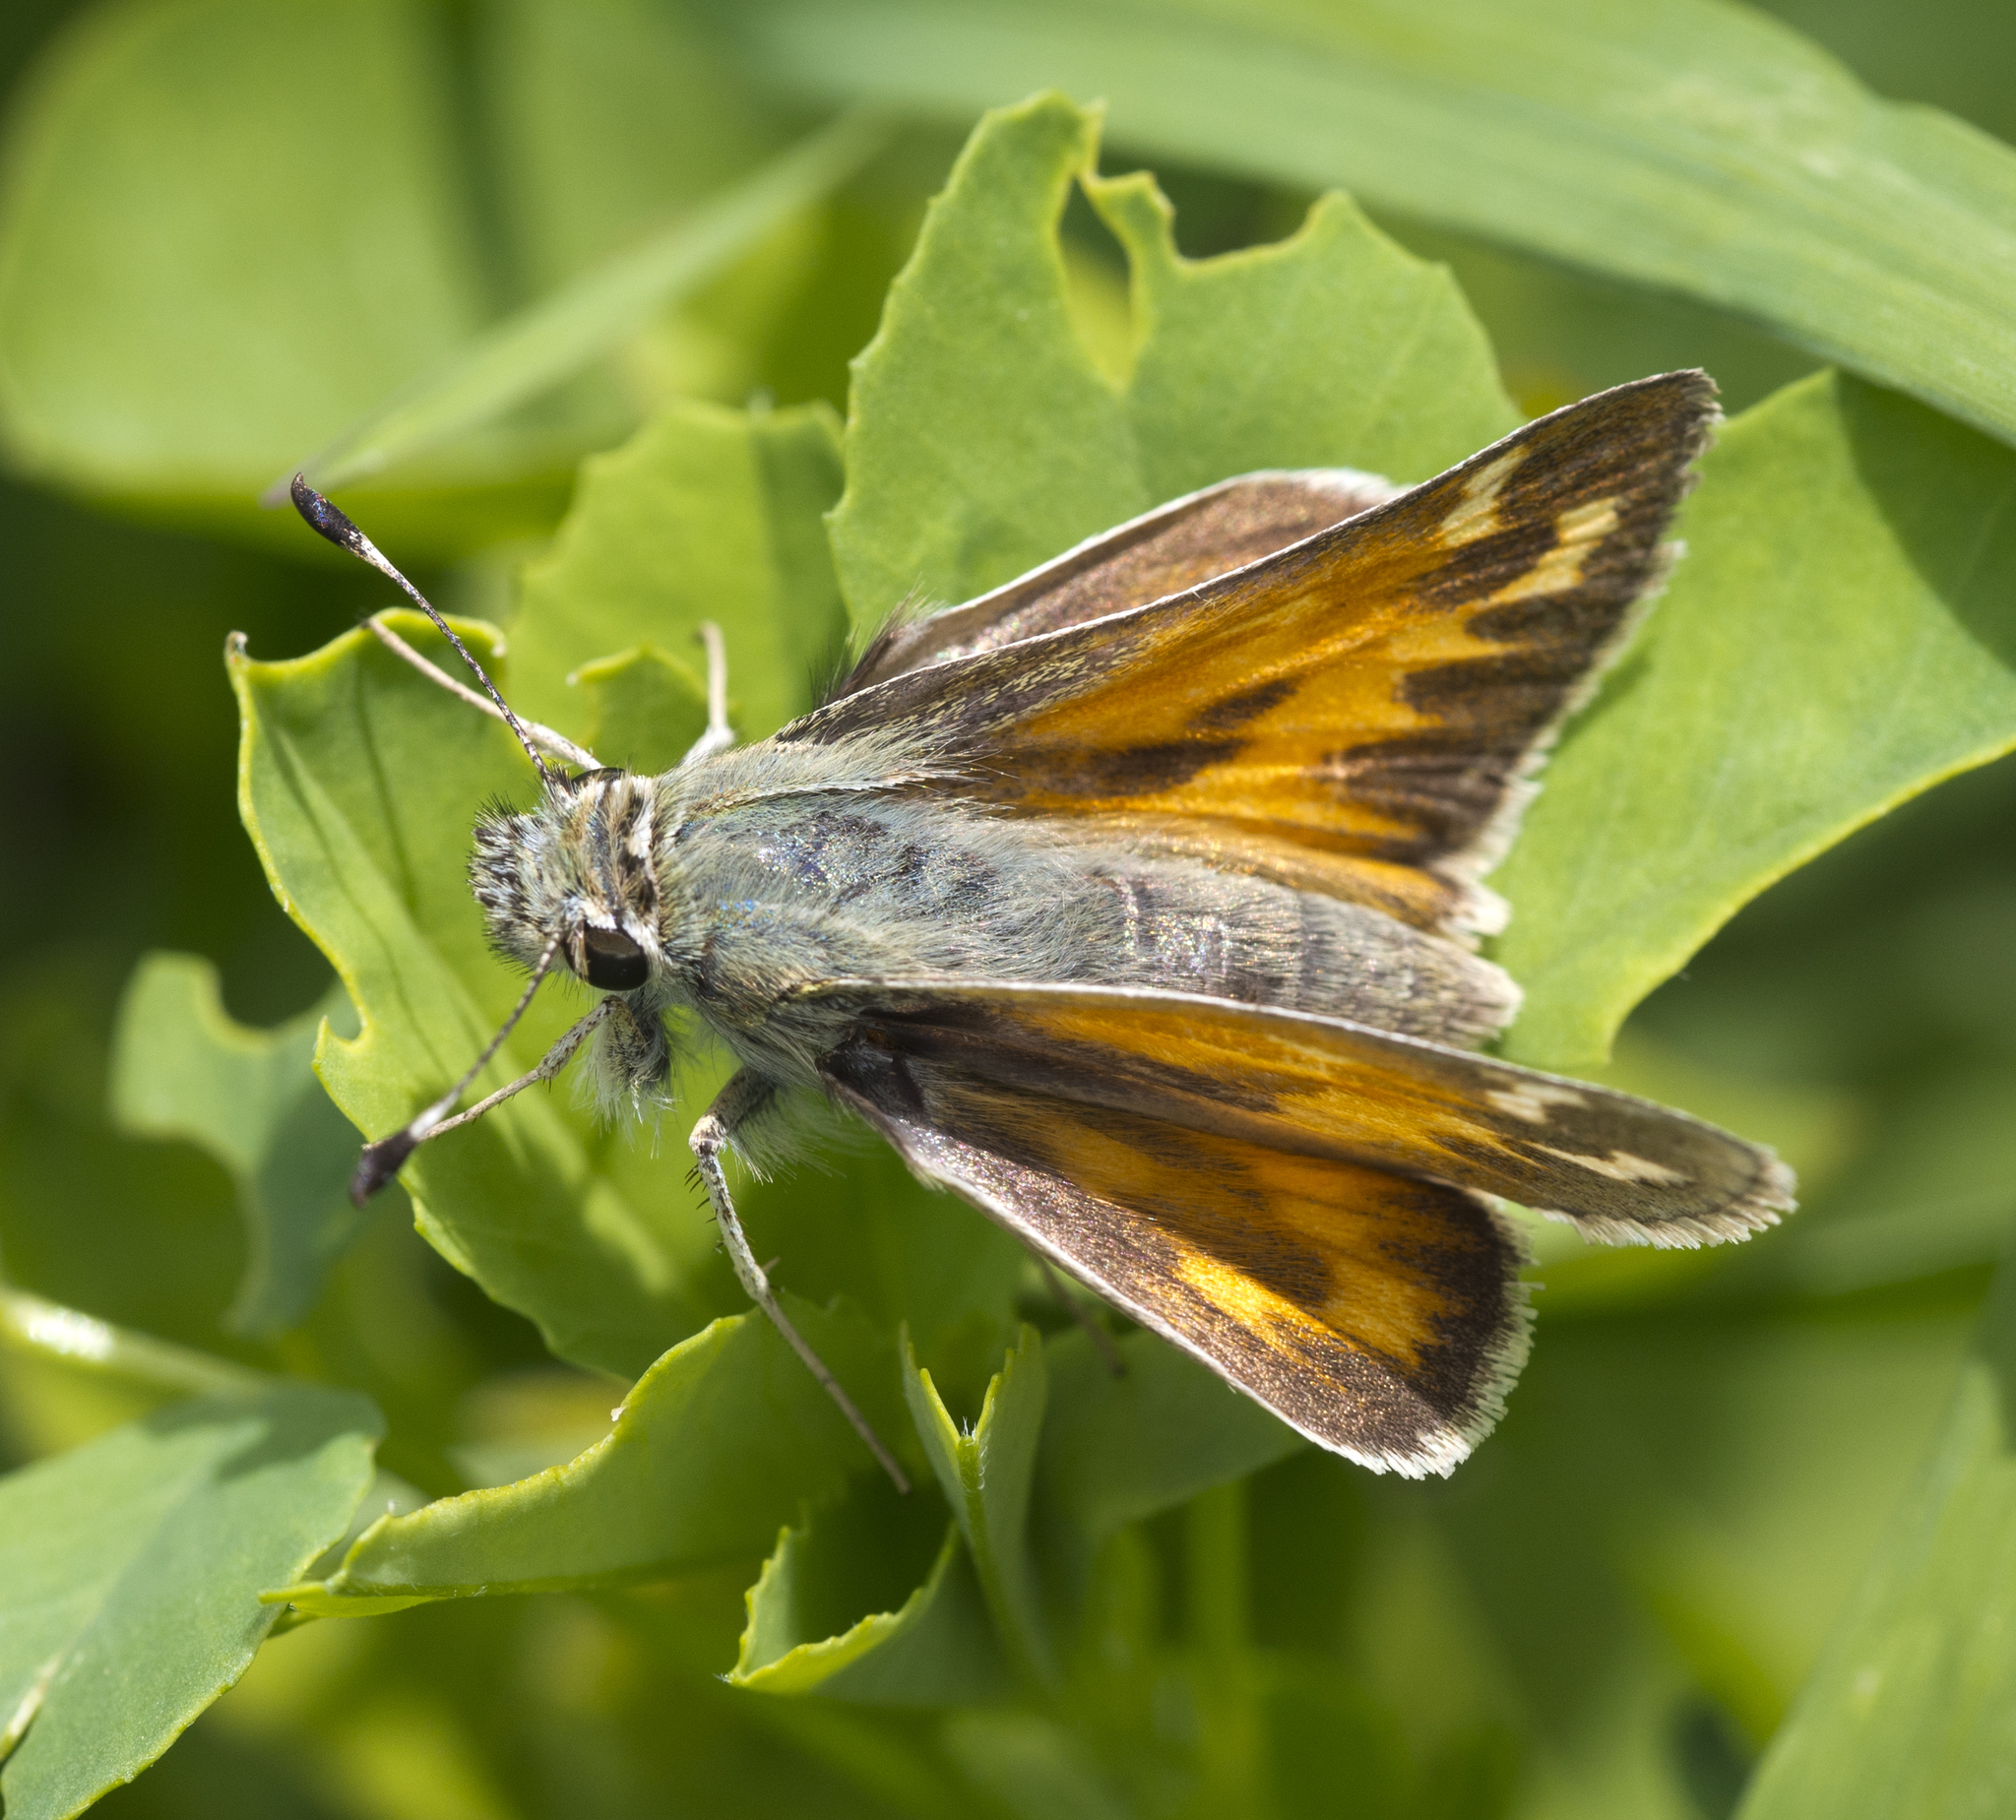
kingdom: Animalia
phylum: Arthropoda
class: Insecta
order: Lepidoptera
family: Hesperiidae
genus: Hesperia
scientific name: Hesperia juba
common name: Juba skipper
